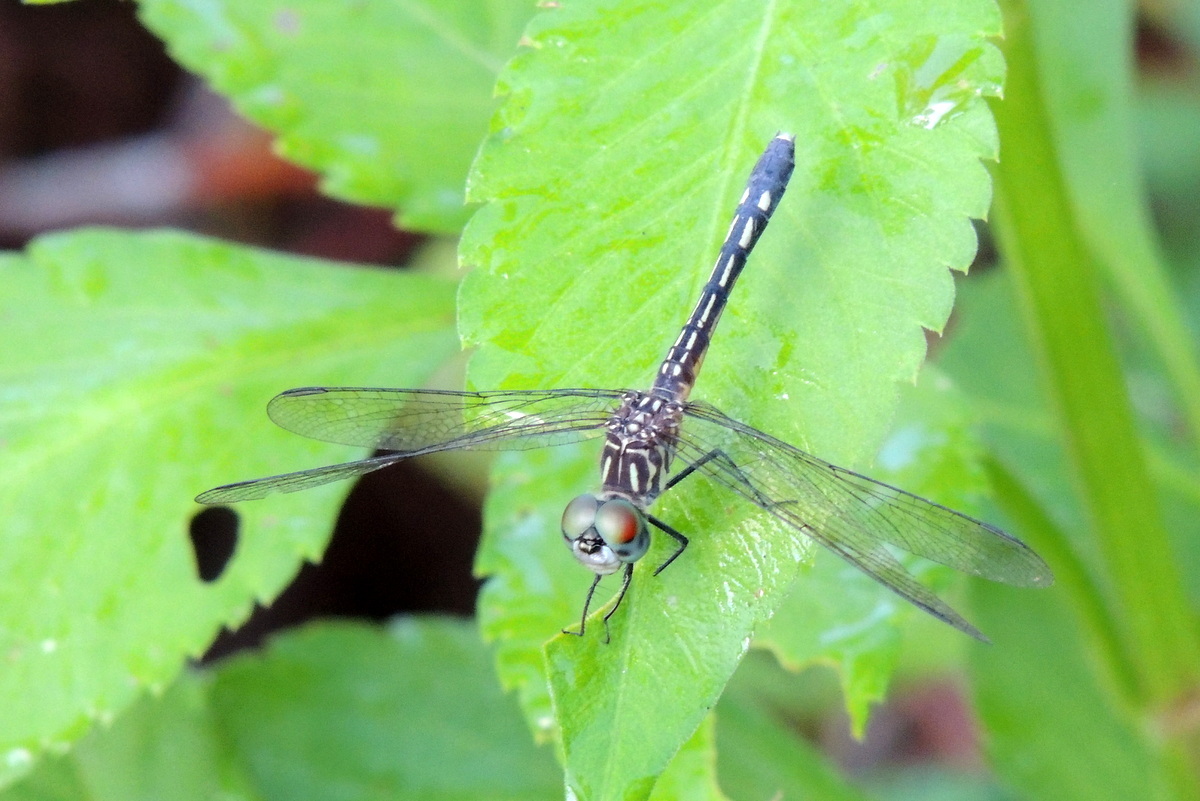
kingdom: Animalia
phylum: Arthropoda
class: Insecta
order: Odonata
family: Libellulidae
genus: Pachydiplax
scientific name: Pachydiplax longipennis
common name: Blue dasher
